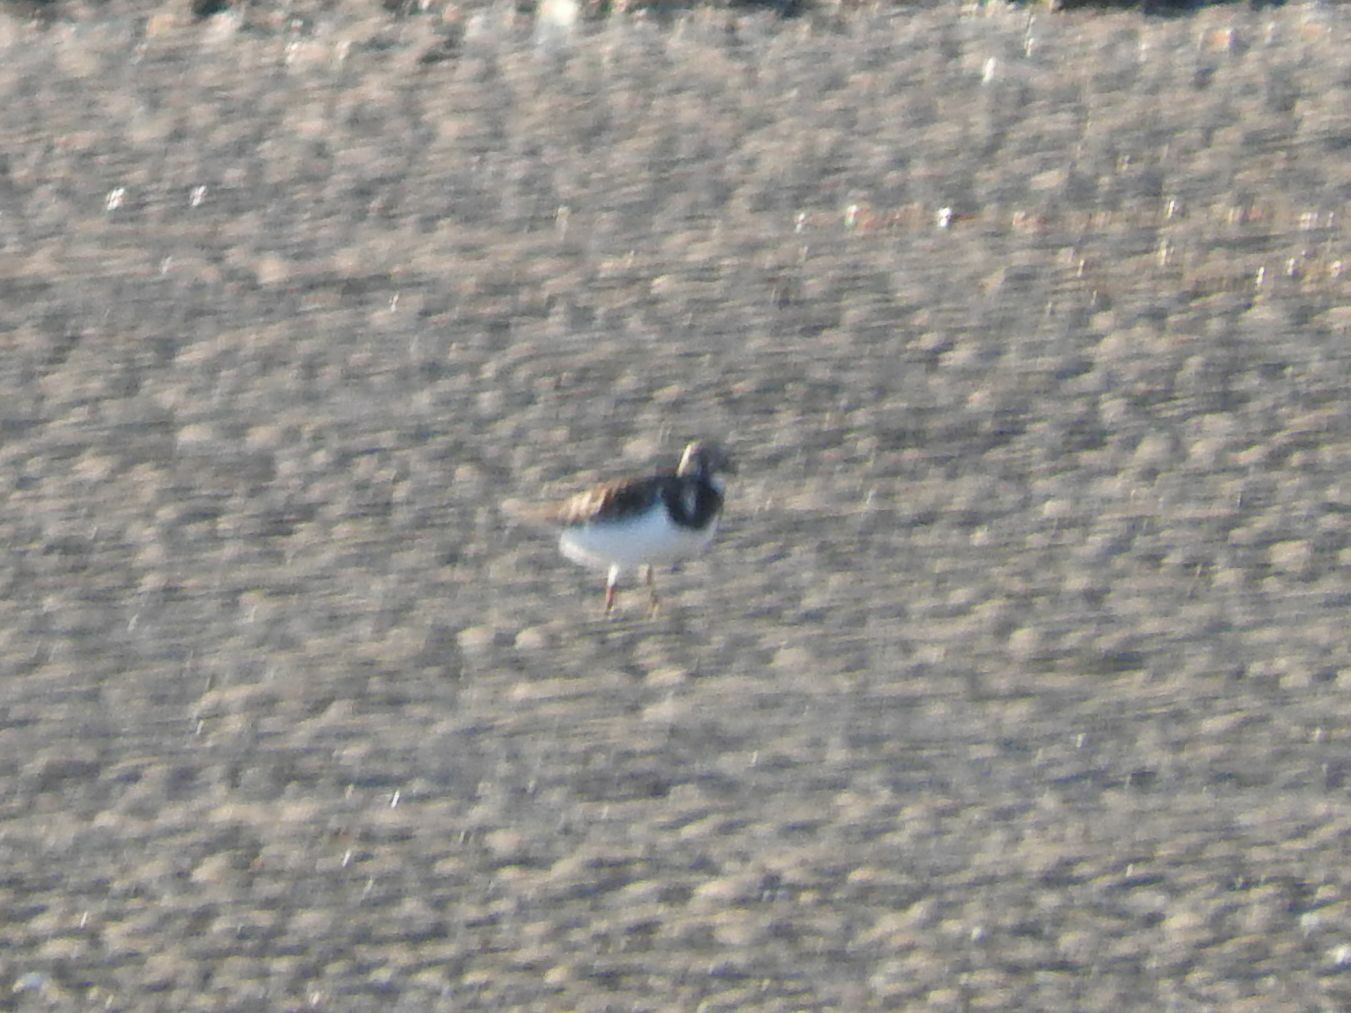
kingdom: Animalia
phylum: Chordata
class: Aves
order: Charadriiformes
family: Scolopacidae
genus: Arenaria
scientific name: Arenaria interpres
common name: Ruddy turnstone
